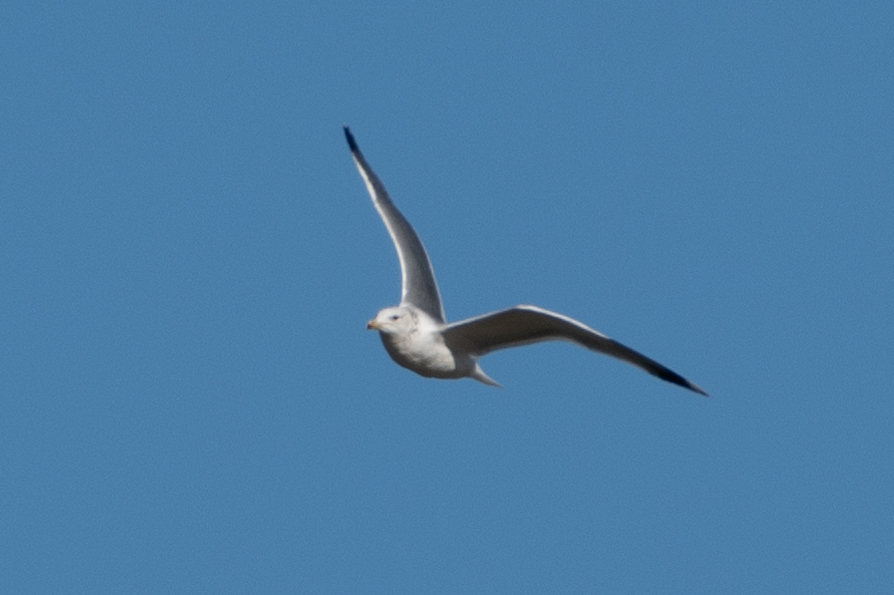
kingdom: Animalia
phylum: Chordata
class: Aves
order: Charadriiformes
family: Laridae
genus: Larus
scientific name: Larus californicus
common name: California gull
